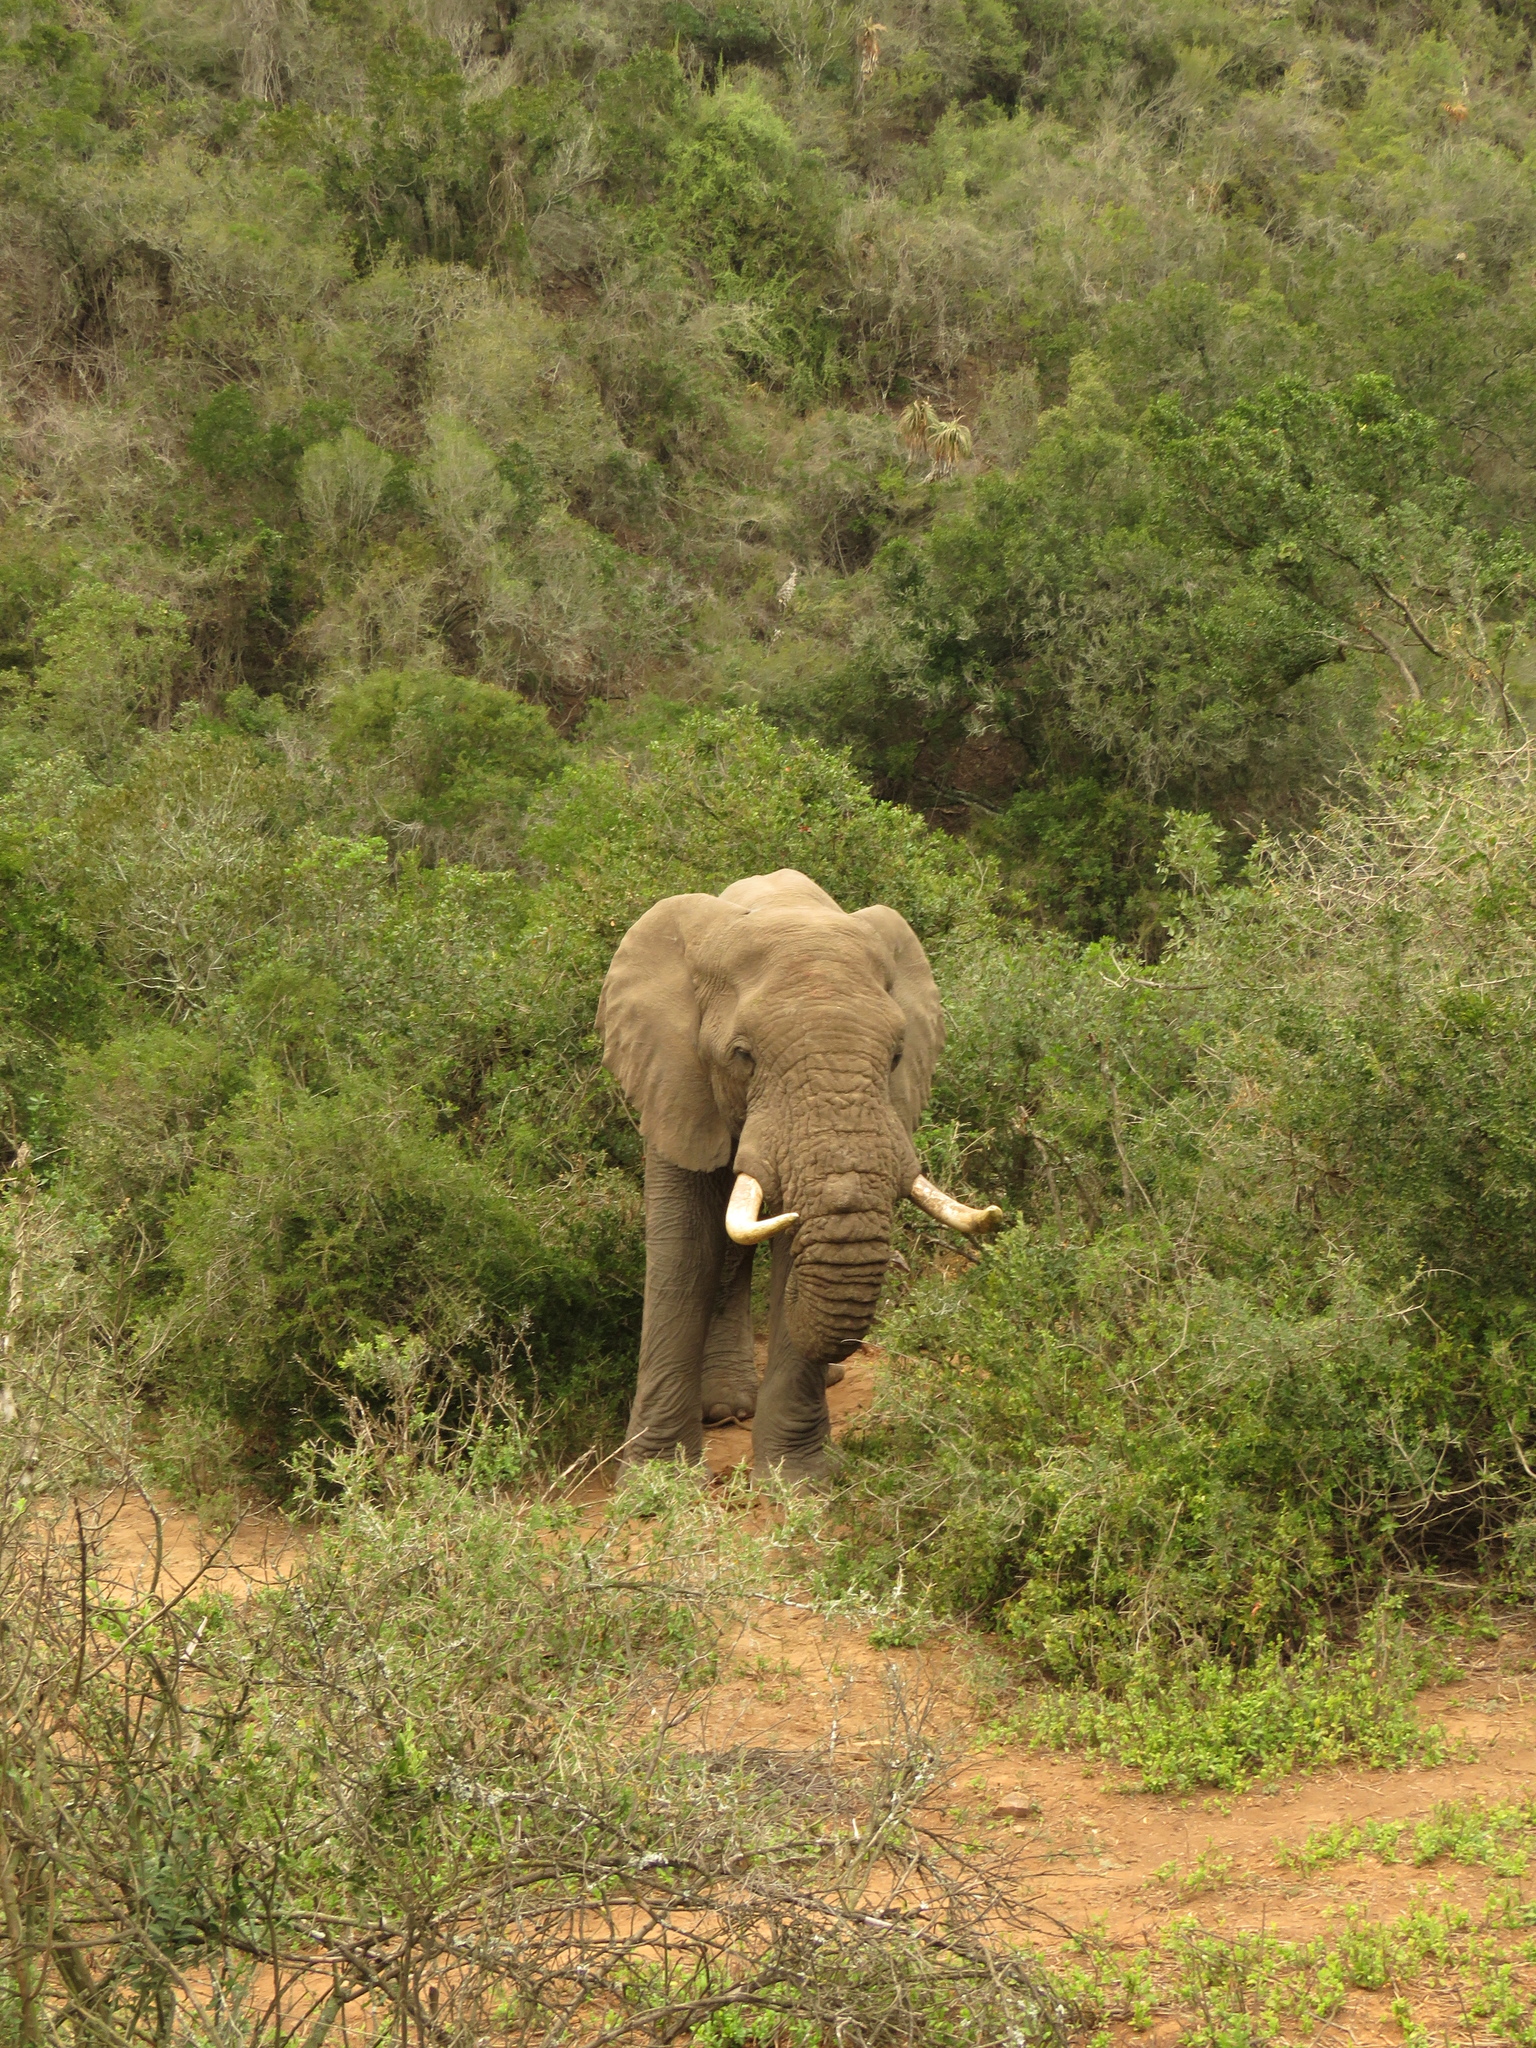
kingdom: Animalia
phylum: Chordata
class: Mammalia
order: Proboscidea
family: Elephantidae
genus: Loxodonta
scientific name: Loxodonta africana
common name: African elephant
